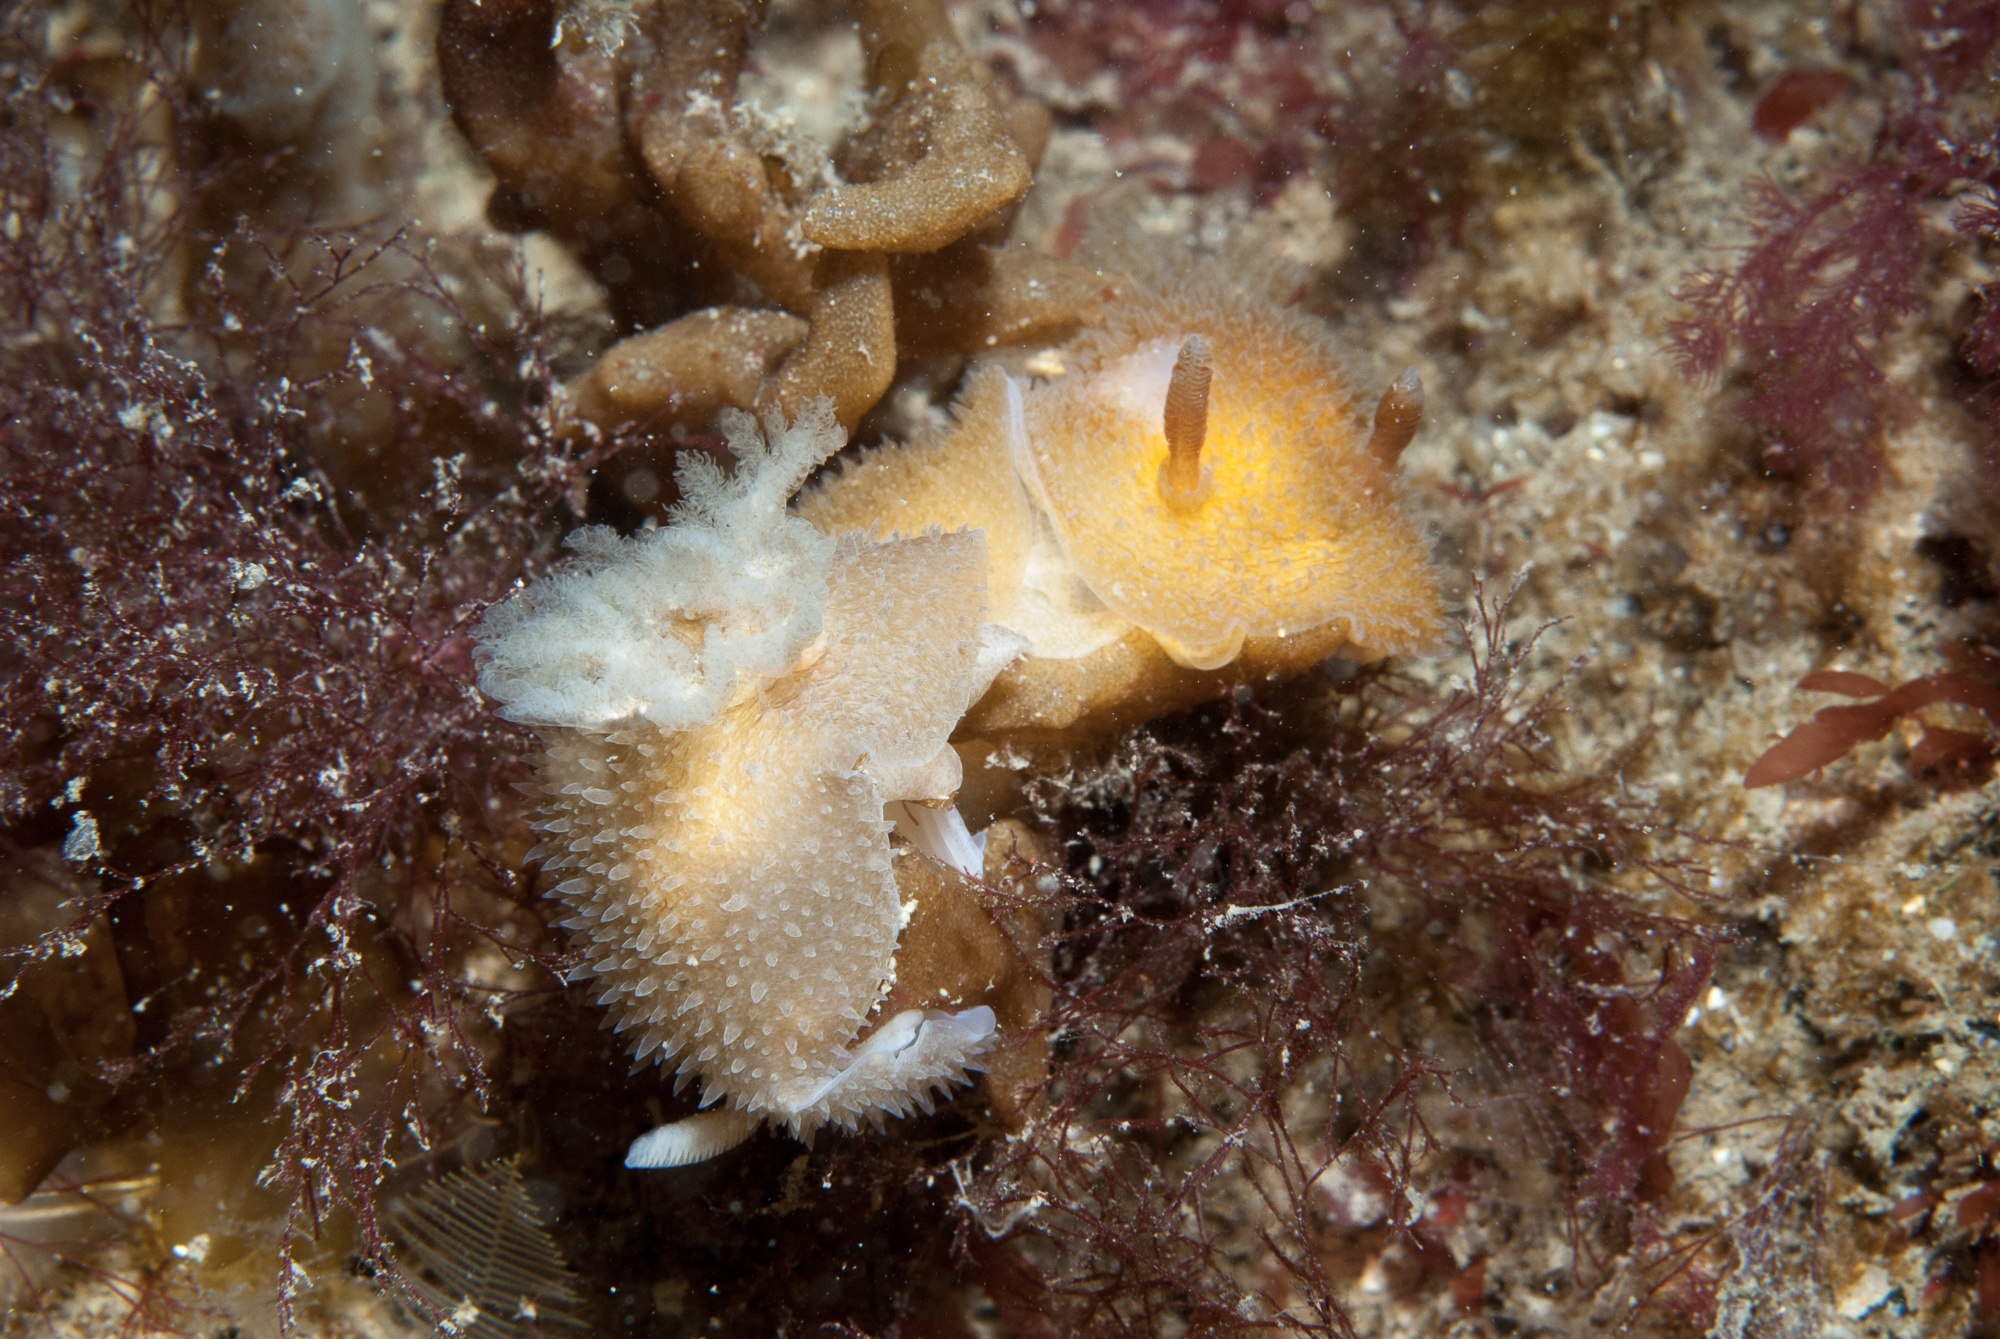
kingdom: Animalia
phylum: Mollusca
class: Gastropoda
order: Nudibranchia
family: Onchidorididae
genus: Acanthodoris
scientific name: Acanthodoris pilosa
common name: Hairy spiny doris
